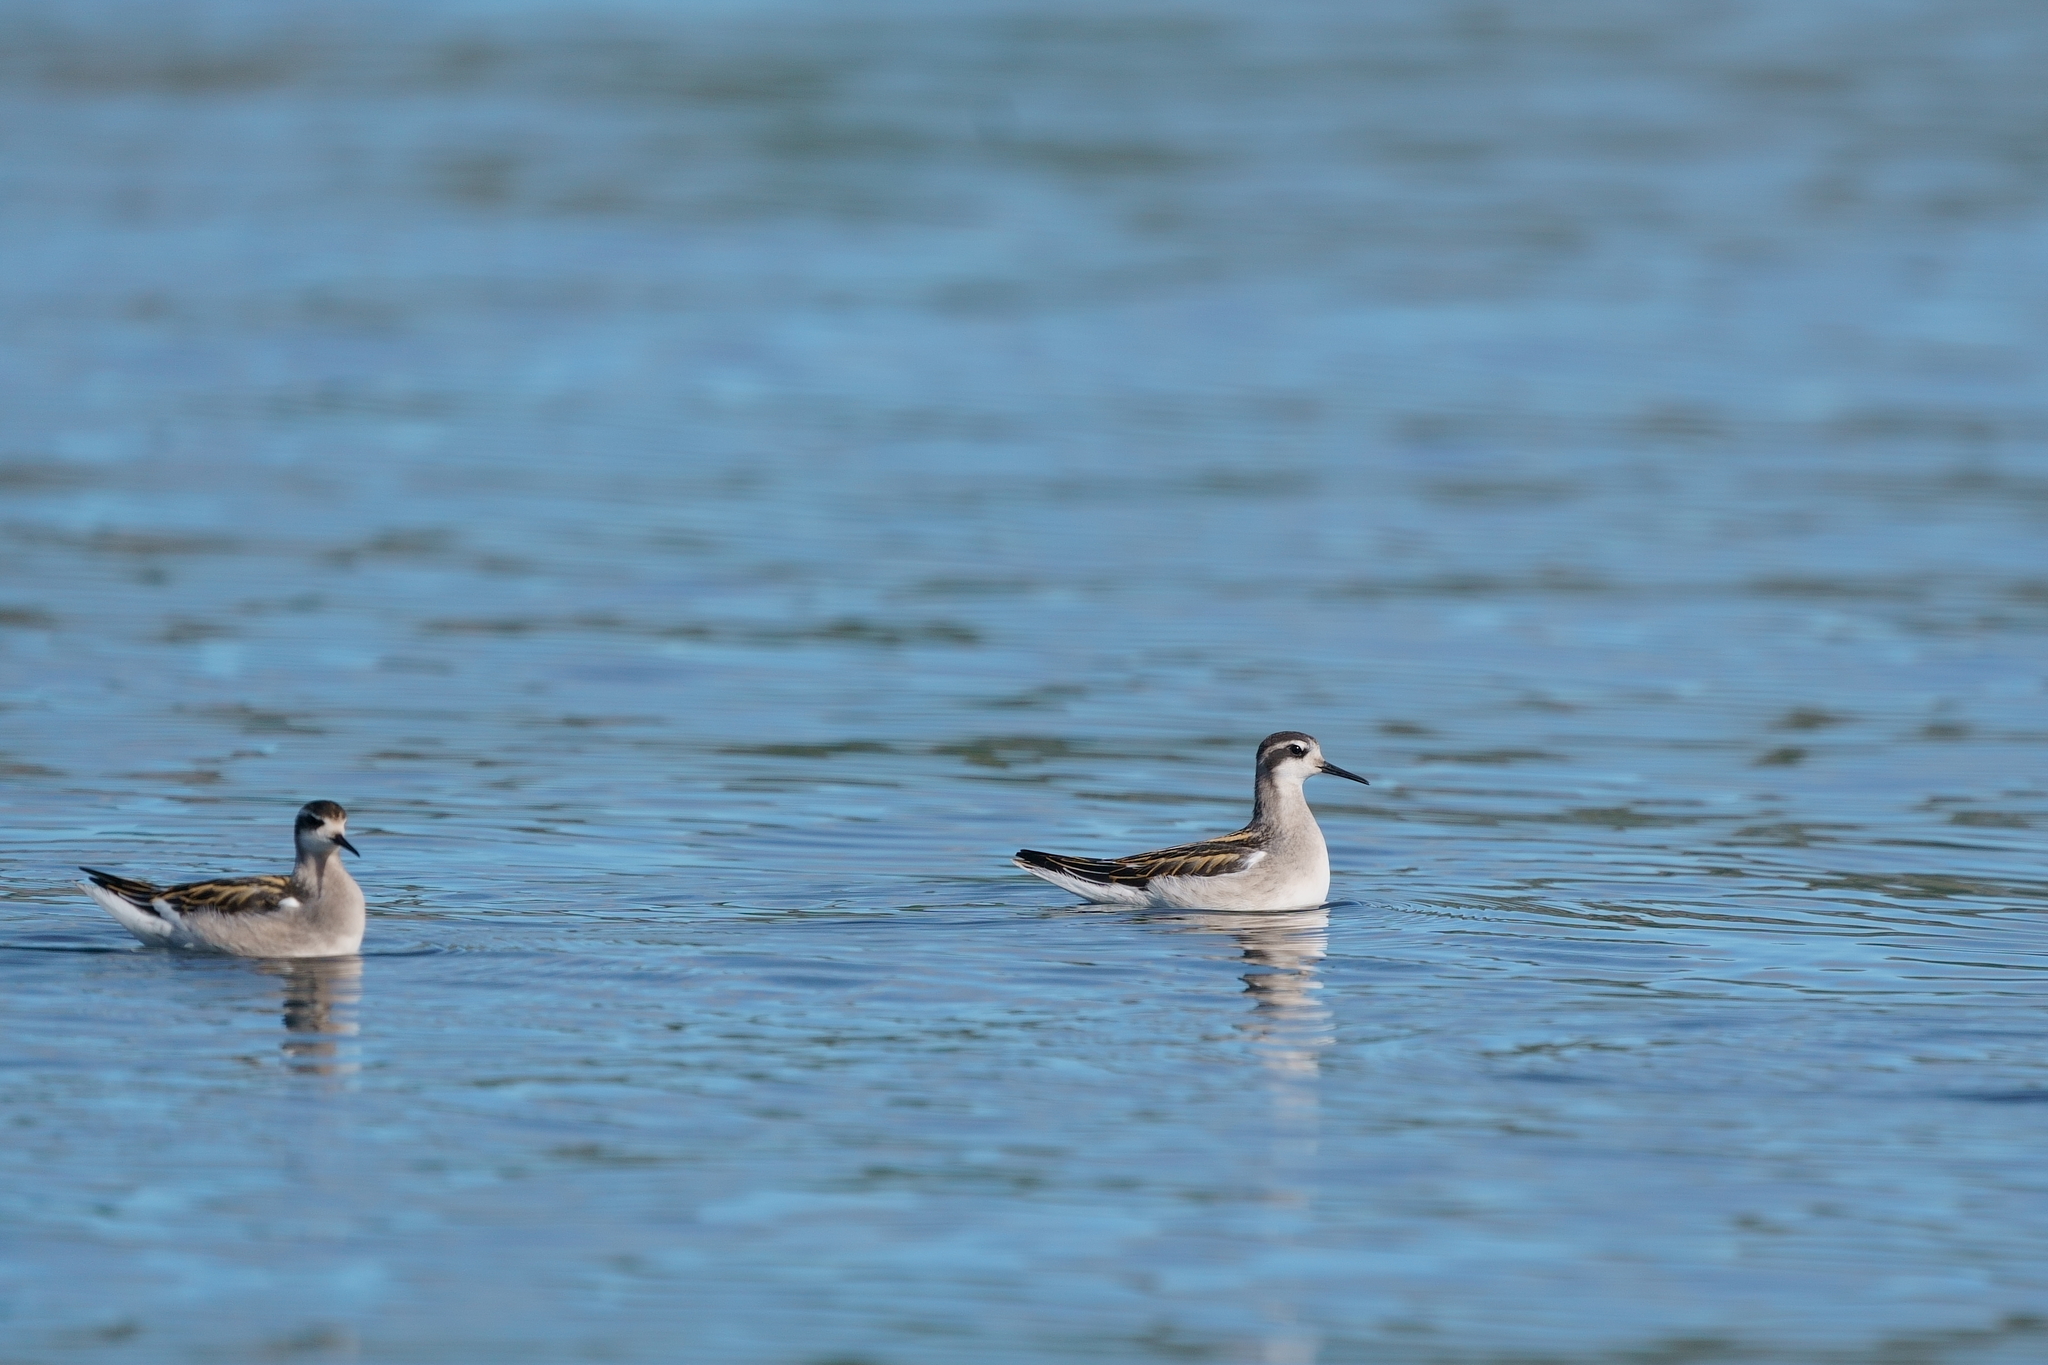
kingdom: Animalia
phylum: Chordata
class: Aves
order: Charadriiformes
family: Scolopacidae
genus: Phalaropus
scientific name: Phalaropus lobatus
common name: Red-necked phalarope
